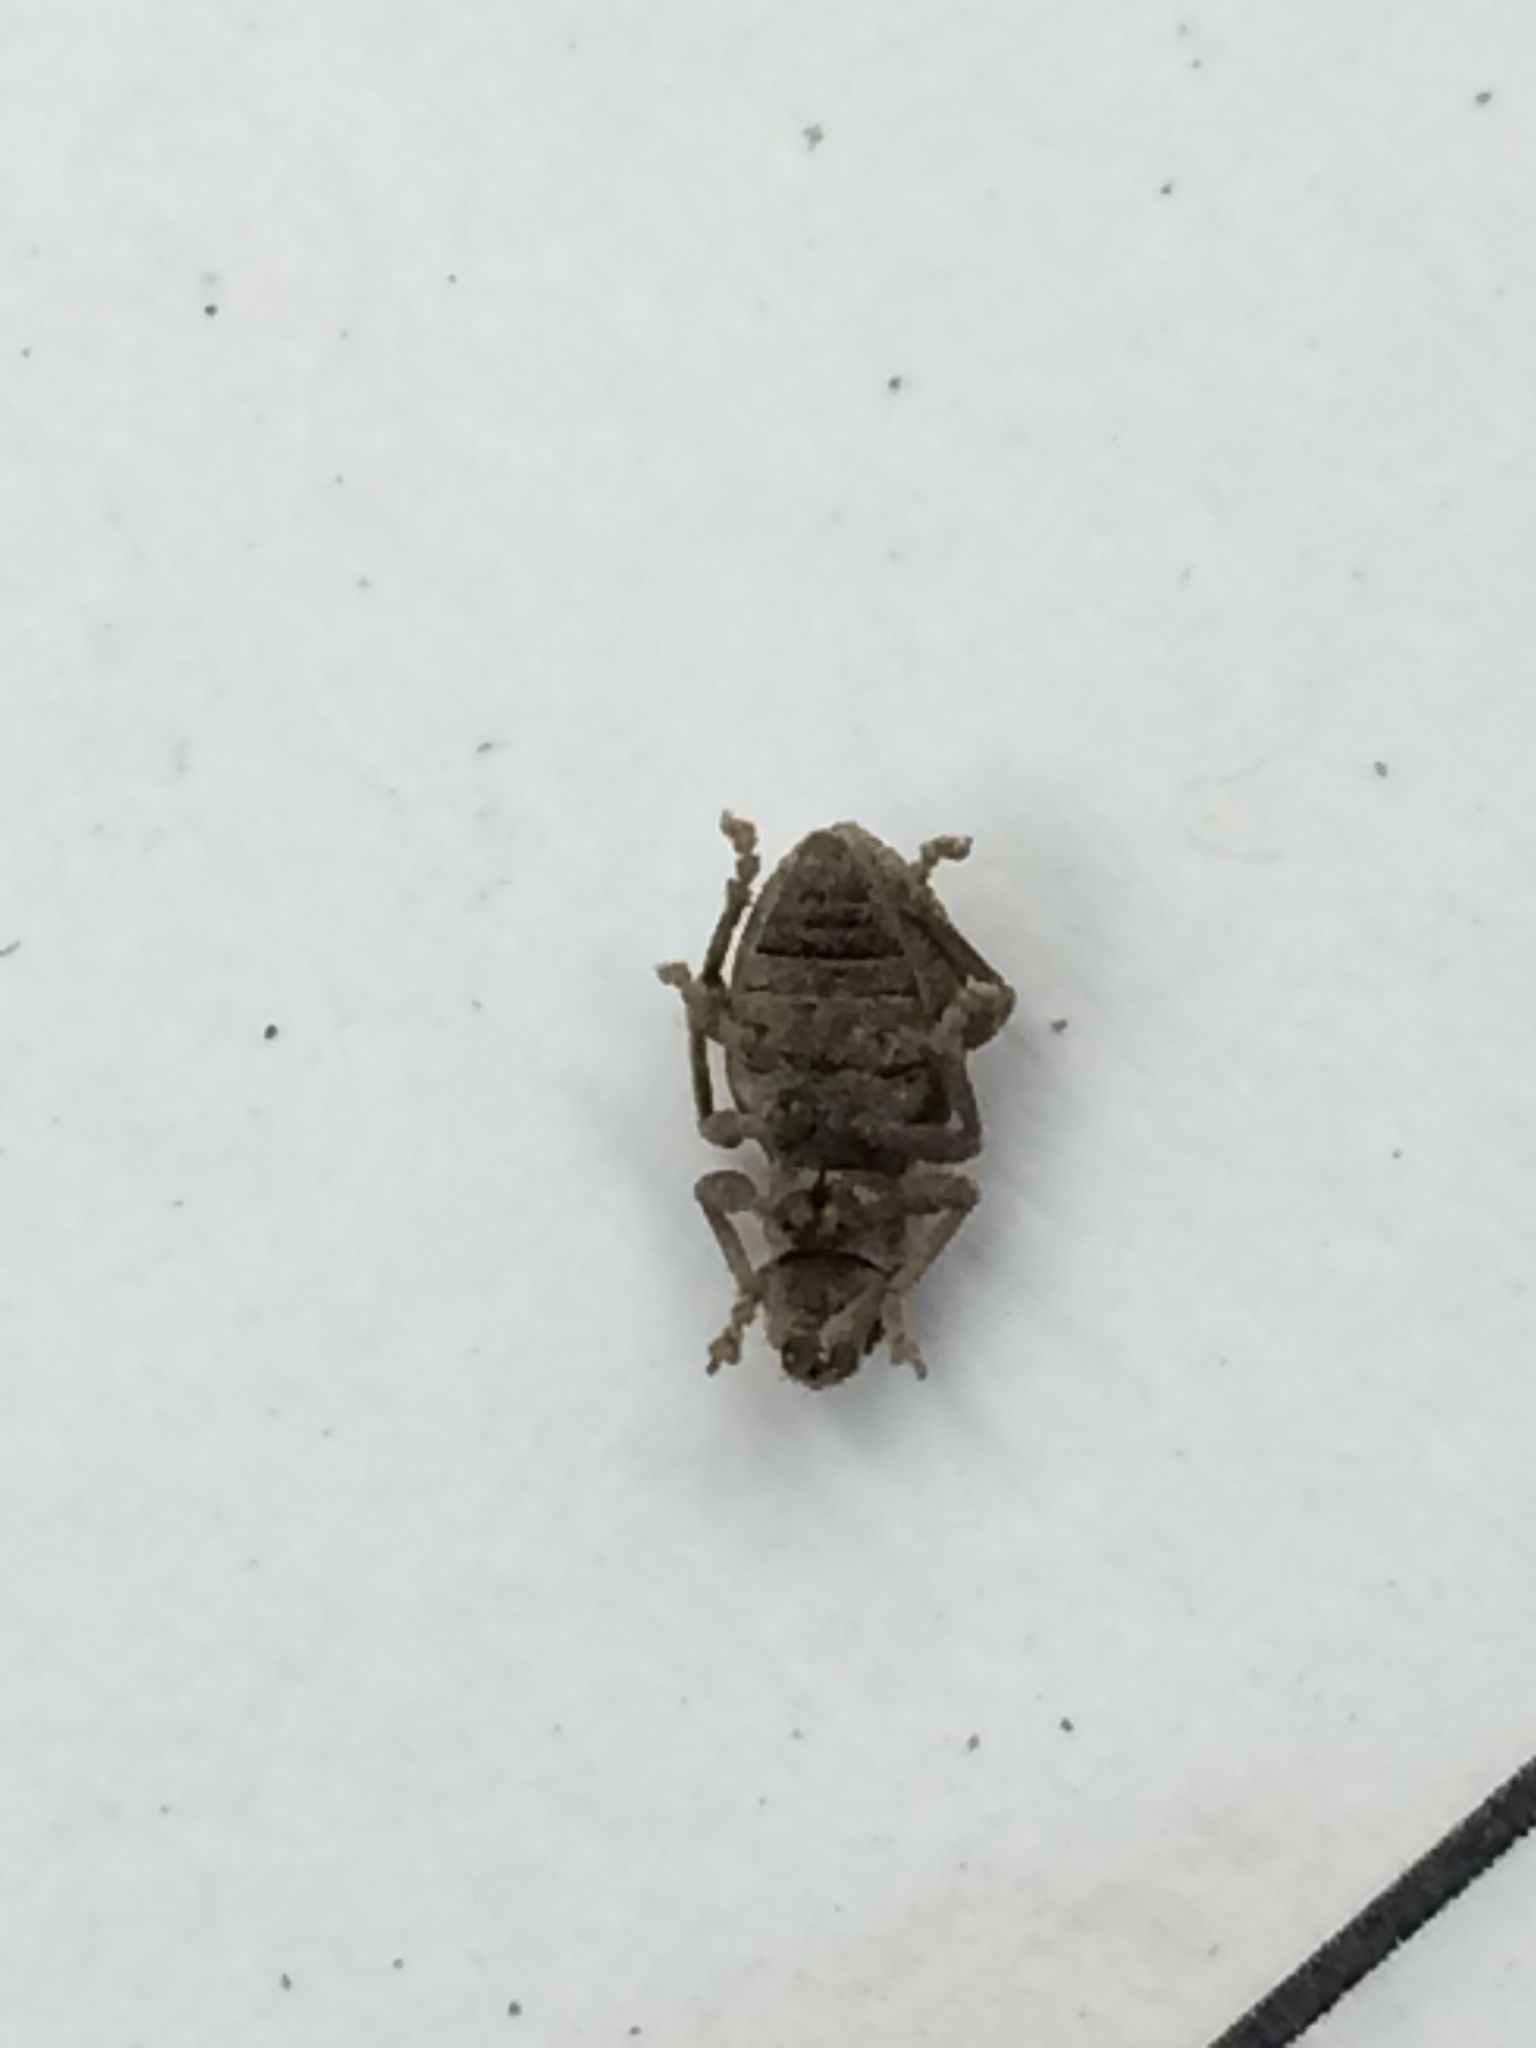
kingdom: Animalia
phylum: Arthropoda
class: Insecta
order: Coleoptera
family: Curculionidae
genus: Sciopithes
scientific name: Sciopithes obscurus
